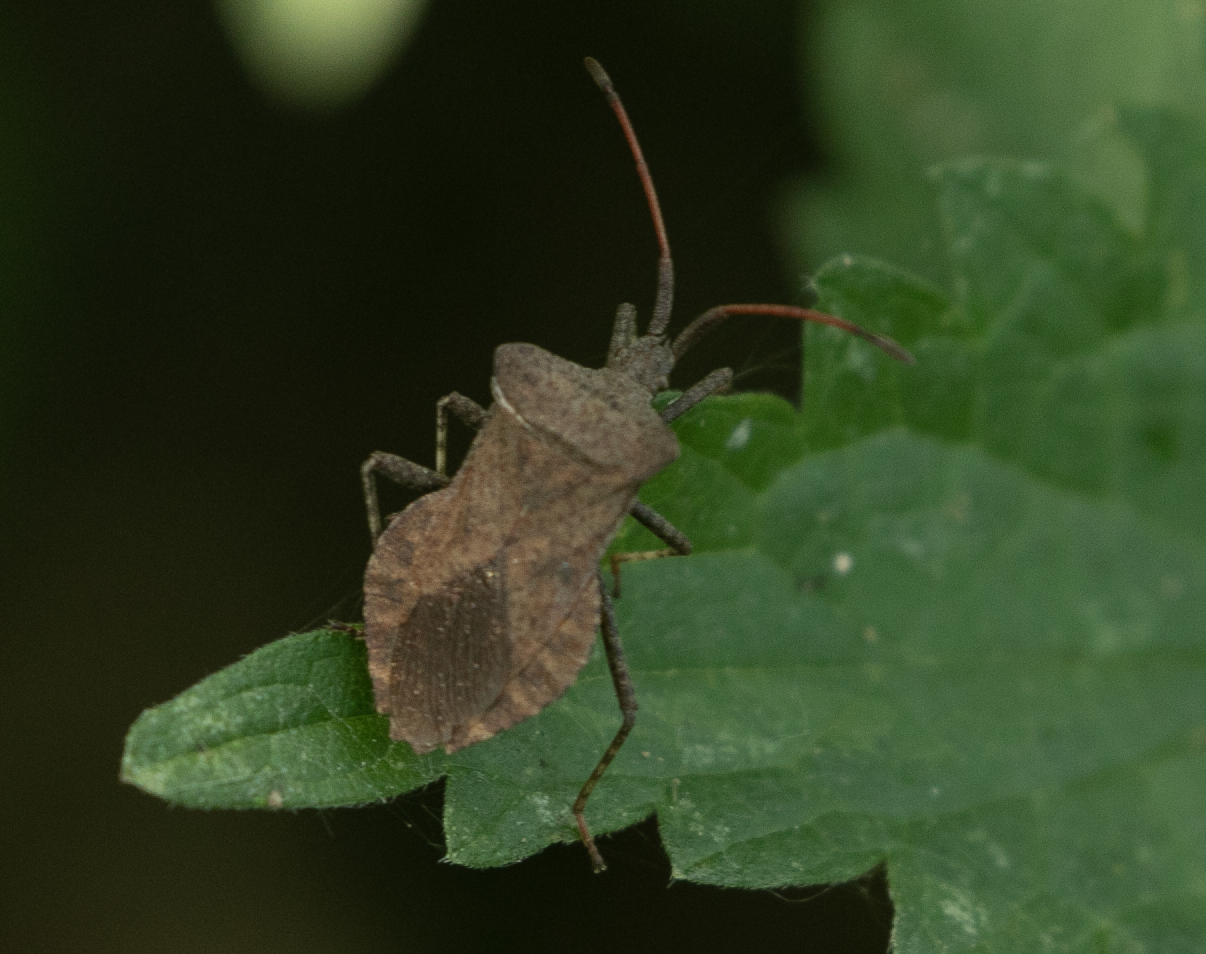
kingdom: Animalia
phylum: Arthropoda
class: Insecta
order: Hemiptera
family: Coreidae
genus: Coreus
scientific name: Coreus marginatus
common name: Dock bug
